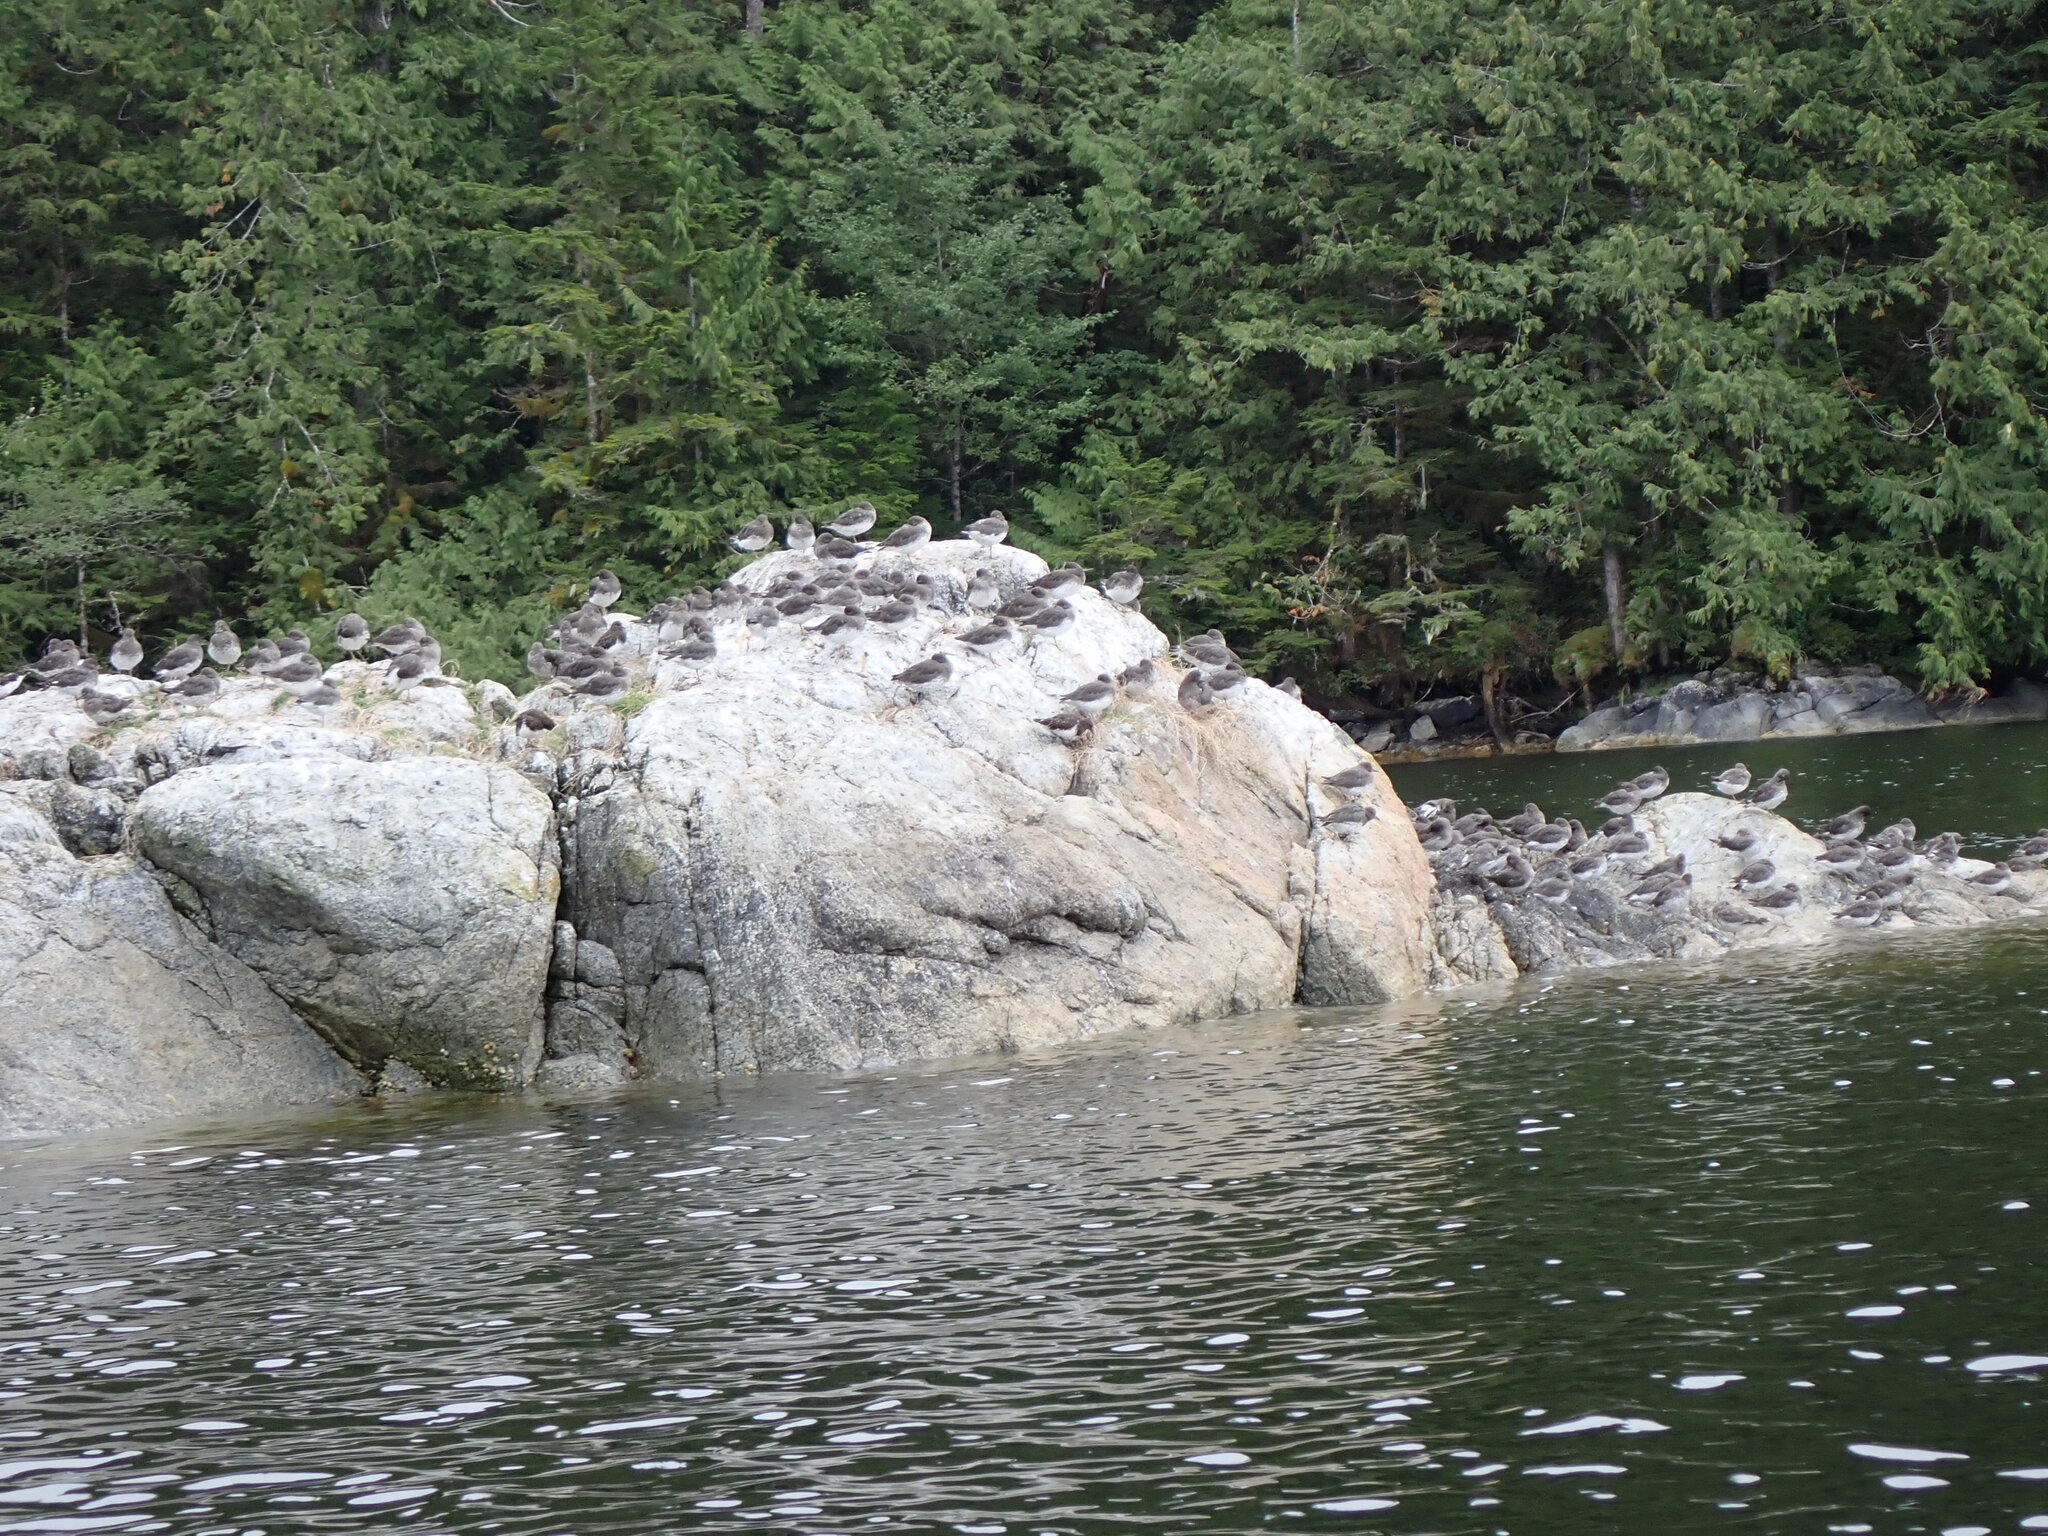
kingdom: Animalia
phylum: Chordata
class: Aves
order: Charadriiformes
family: Scolopacidae
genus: Calidris
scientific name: Calidris virgata
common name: Surfbird
